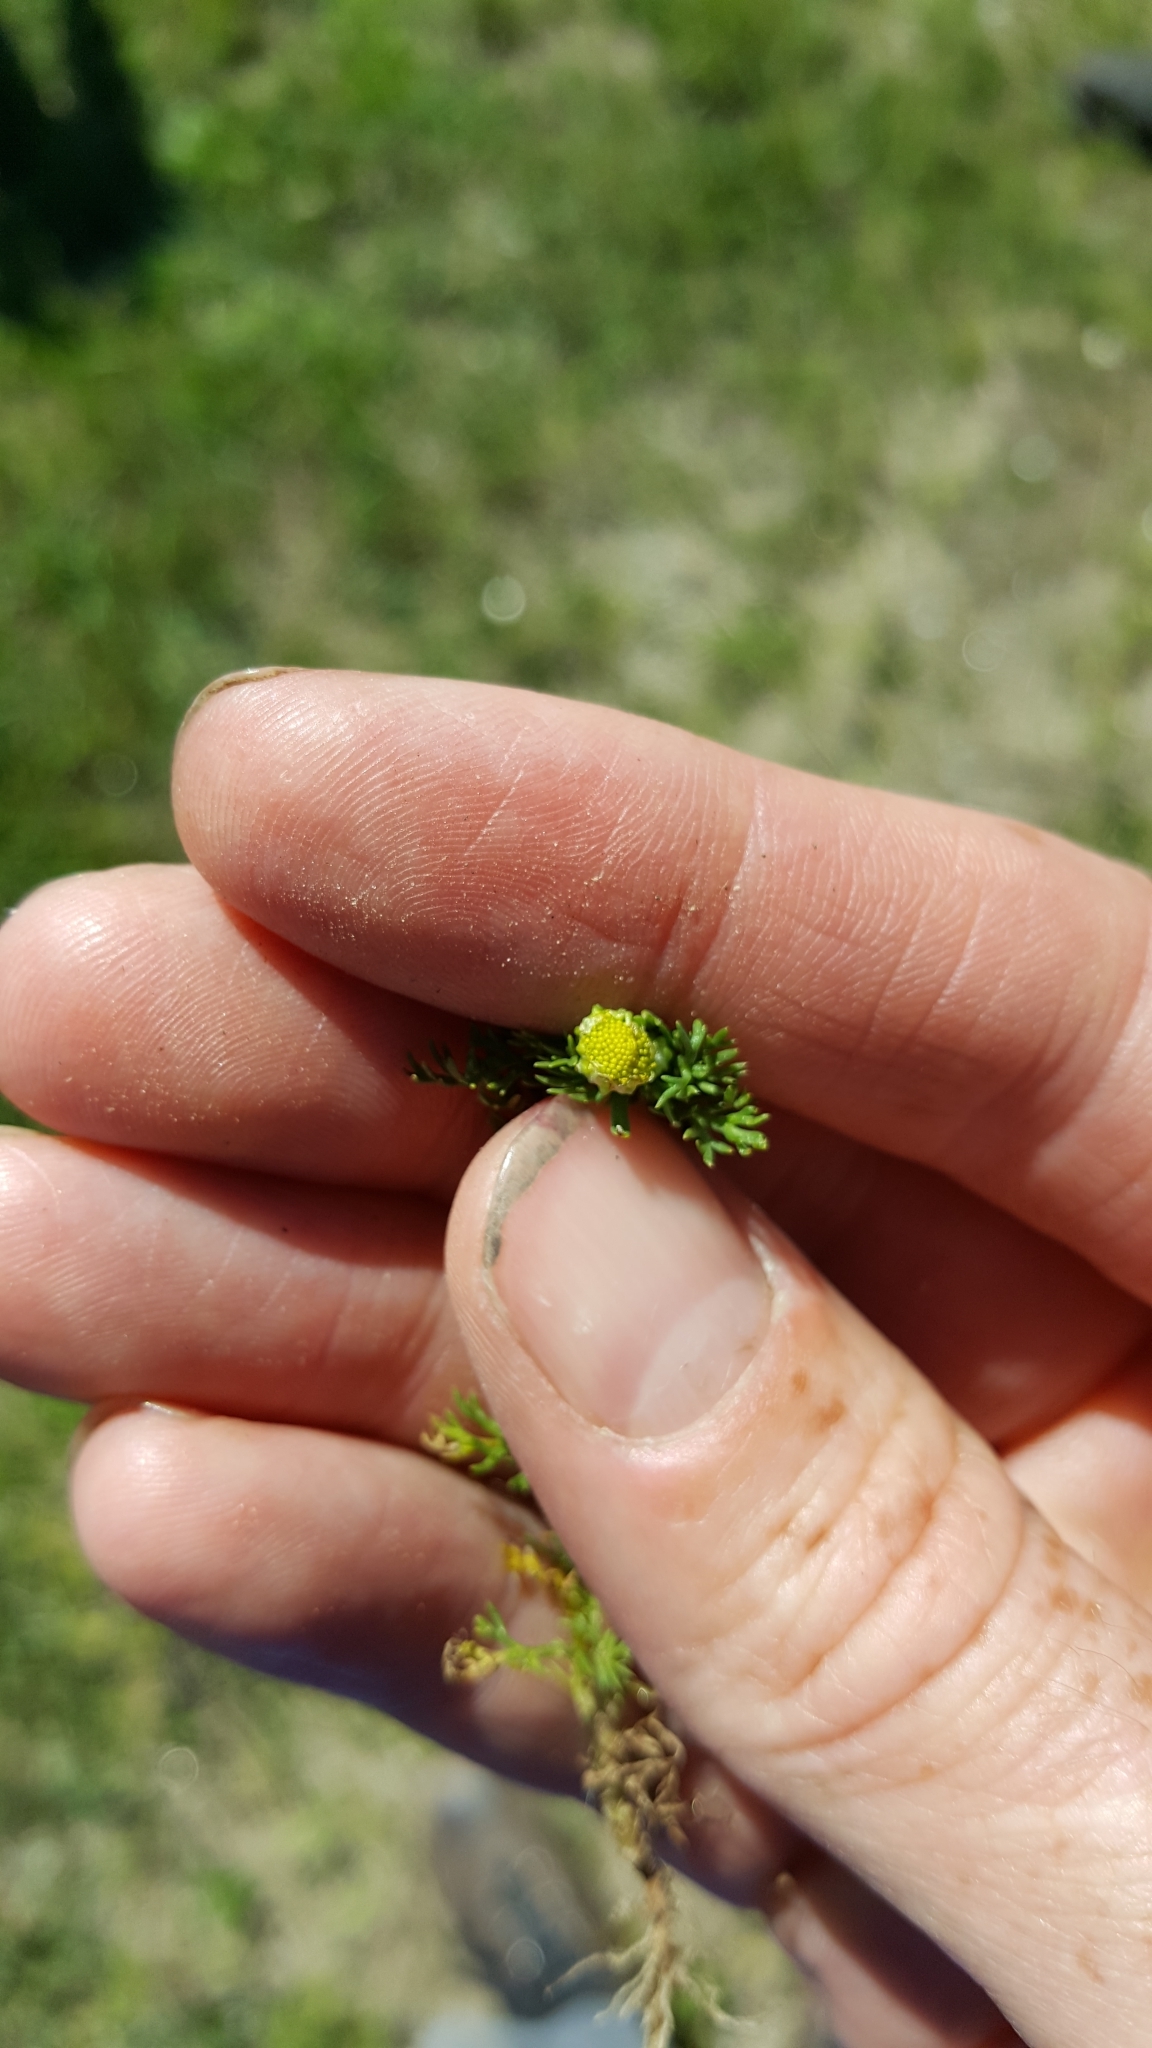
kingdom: Plantae
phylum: Tracheophyta
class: Magnoliopsida
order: Asterales
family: Asteraceae
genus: Matricaria
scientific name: Matricaria discoidea
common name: Disc mayweed
